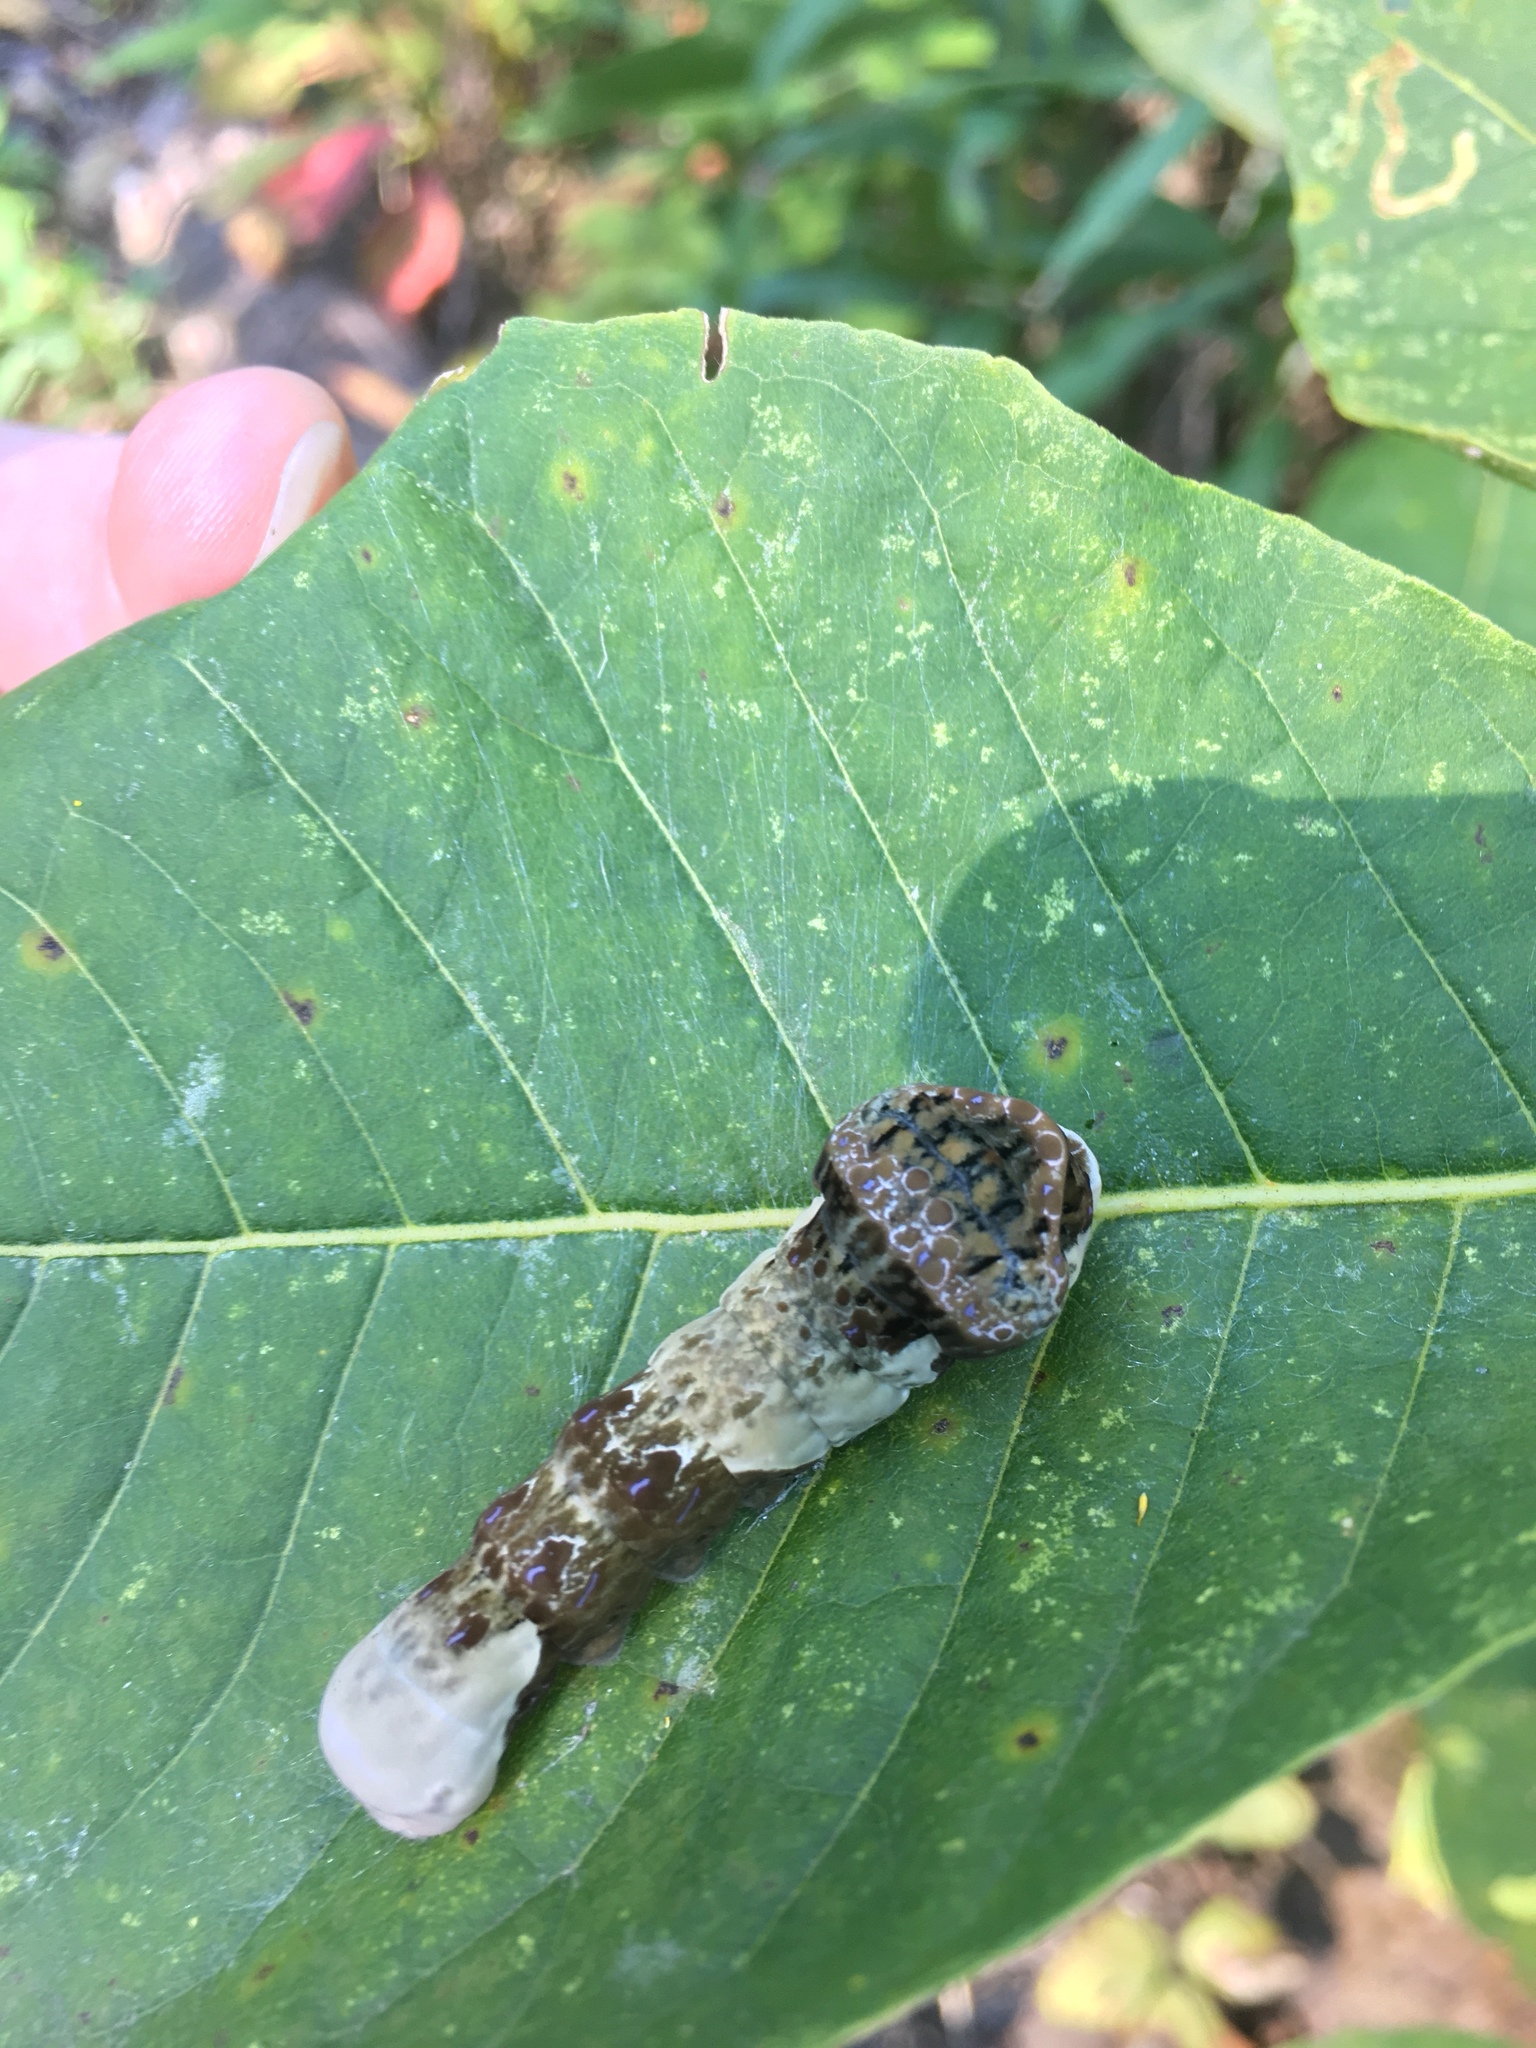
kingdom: Animalia
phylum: Arthropoda
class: Insecta
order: Lepidoptera
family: Papilionidae
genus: Papilio
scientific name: Papilio cresphontes
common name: Giant swallowtail
